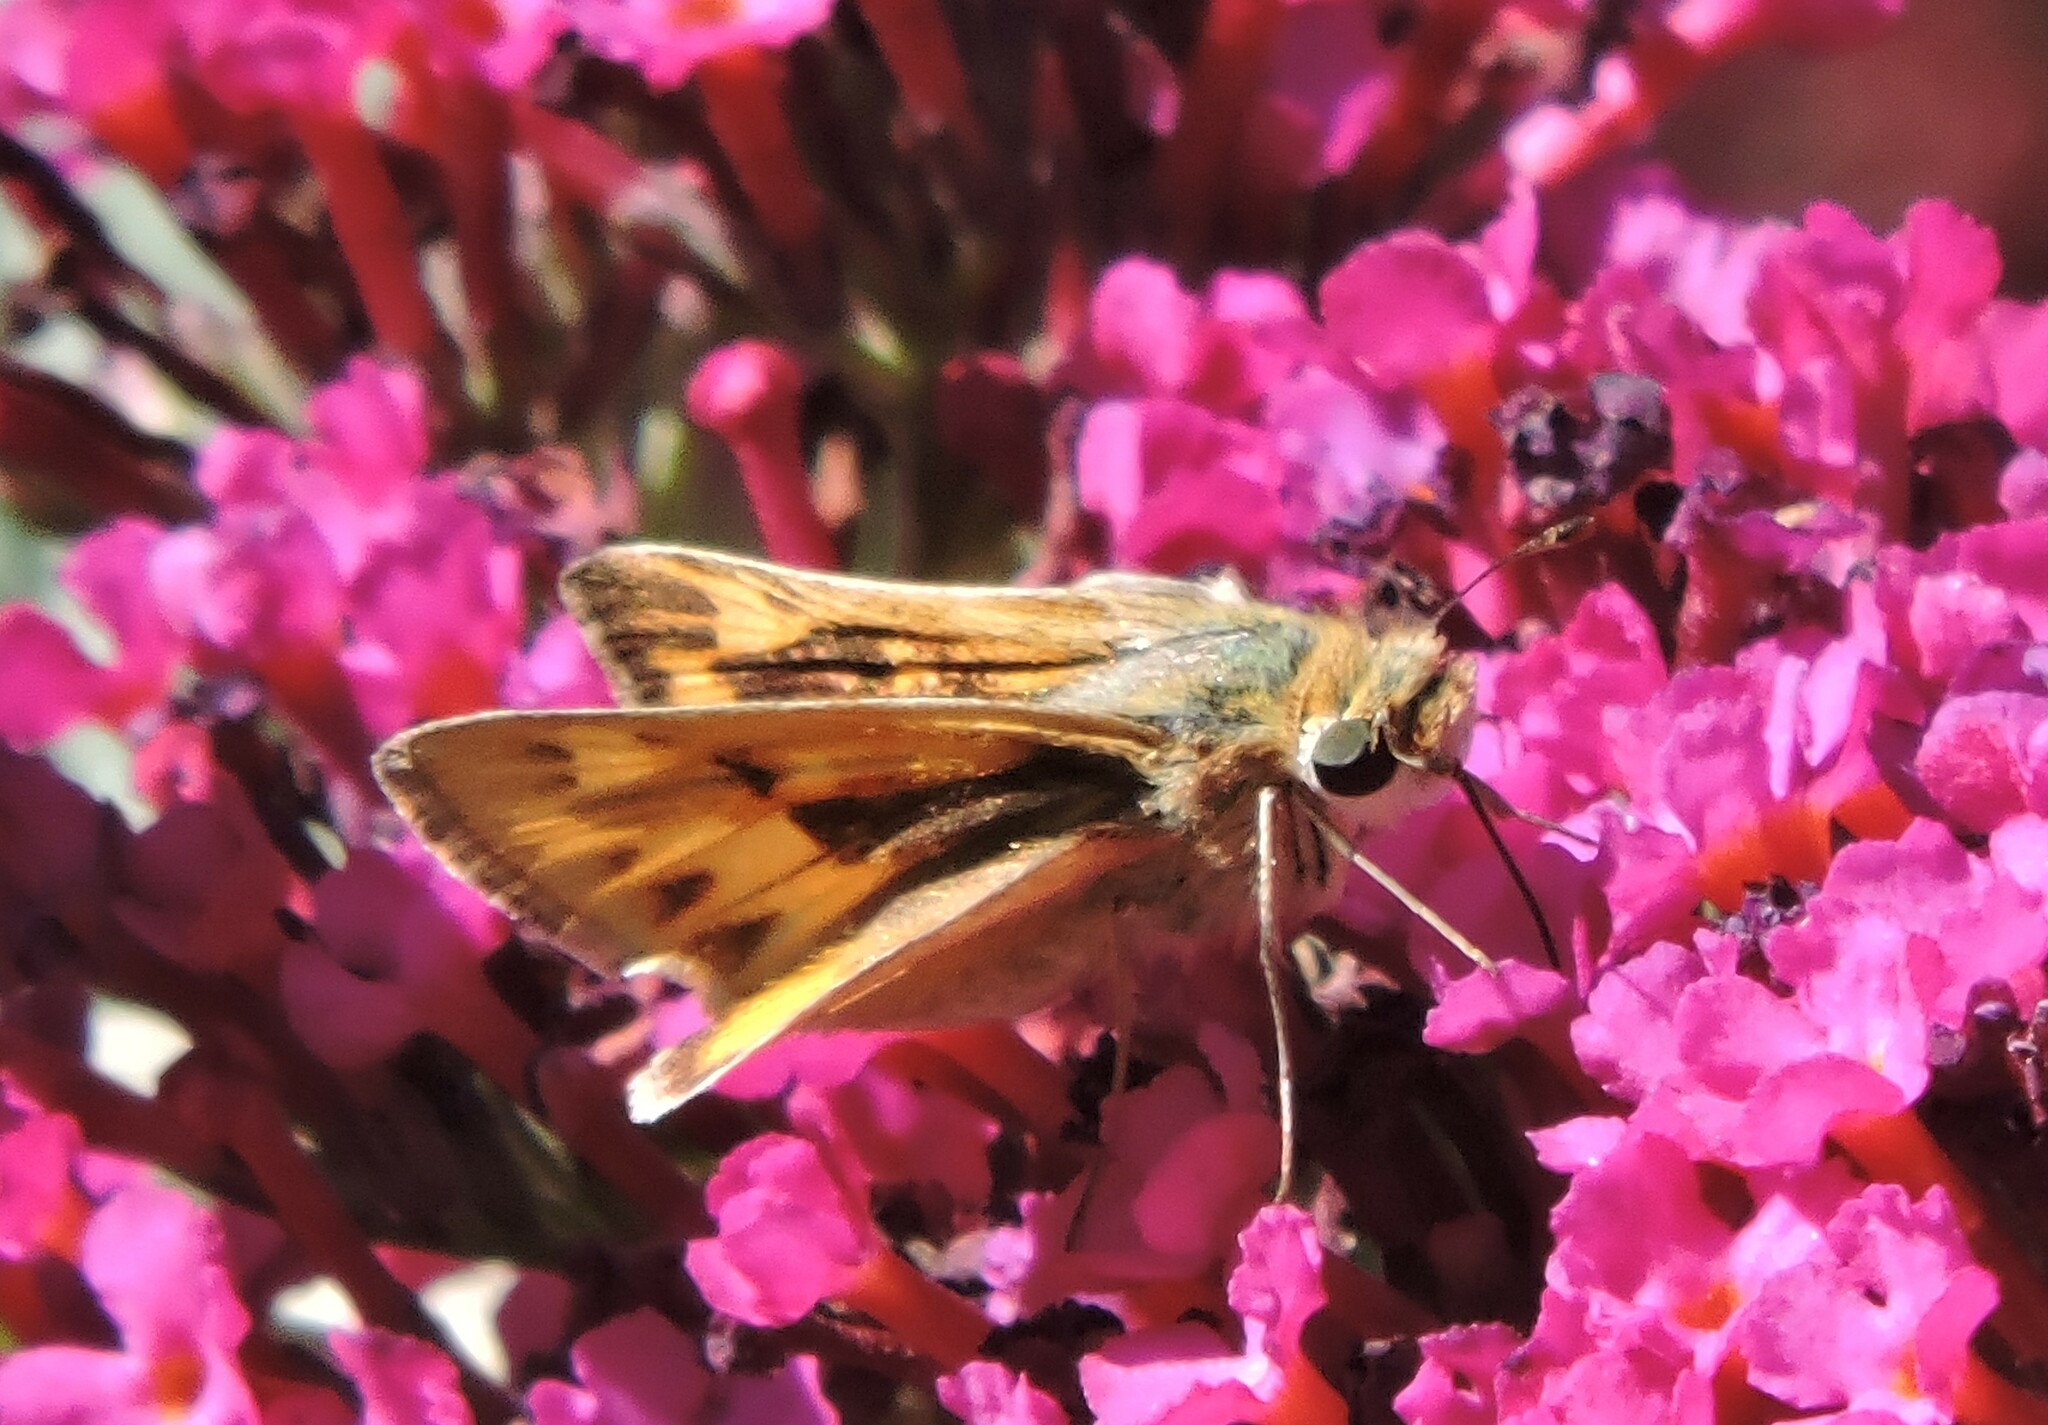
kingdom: Animalia
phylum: Arthropoda
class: Insecta
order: Lepidoptera
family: Hesperiidae
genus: Hylephila
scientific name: Hylephila phyleus
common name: Fiery skipper
